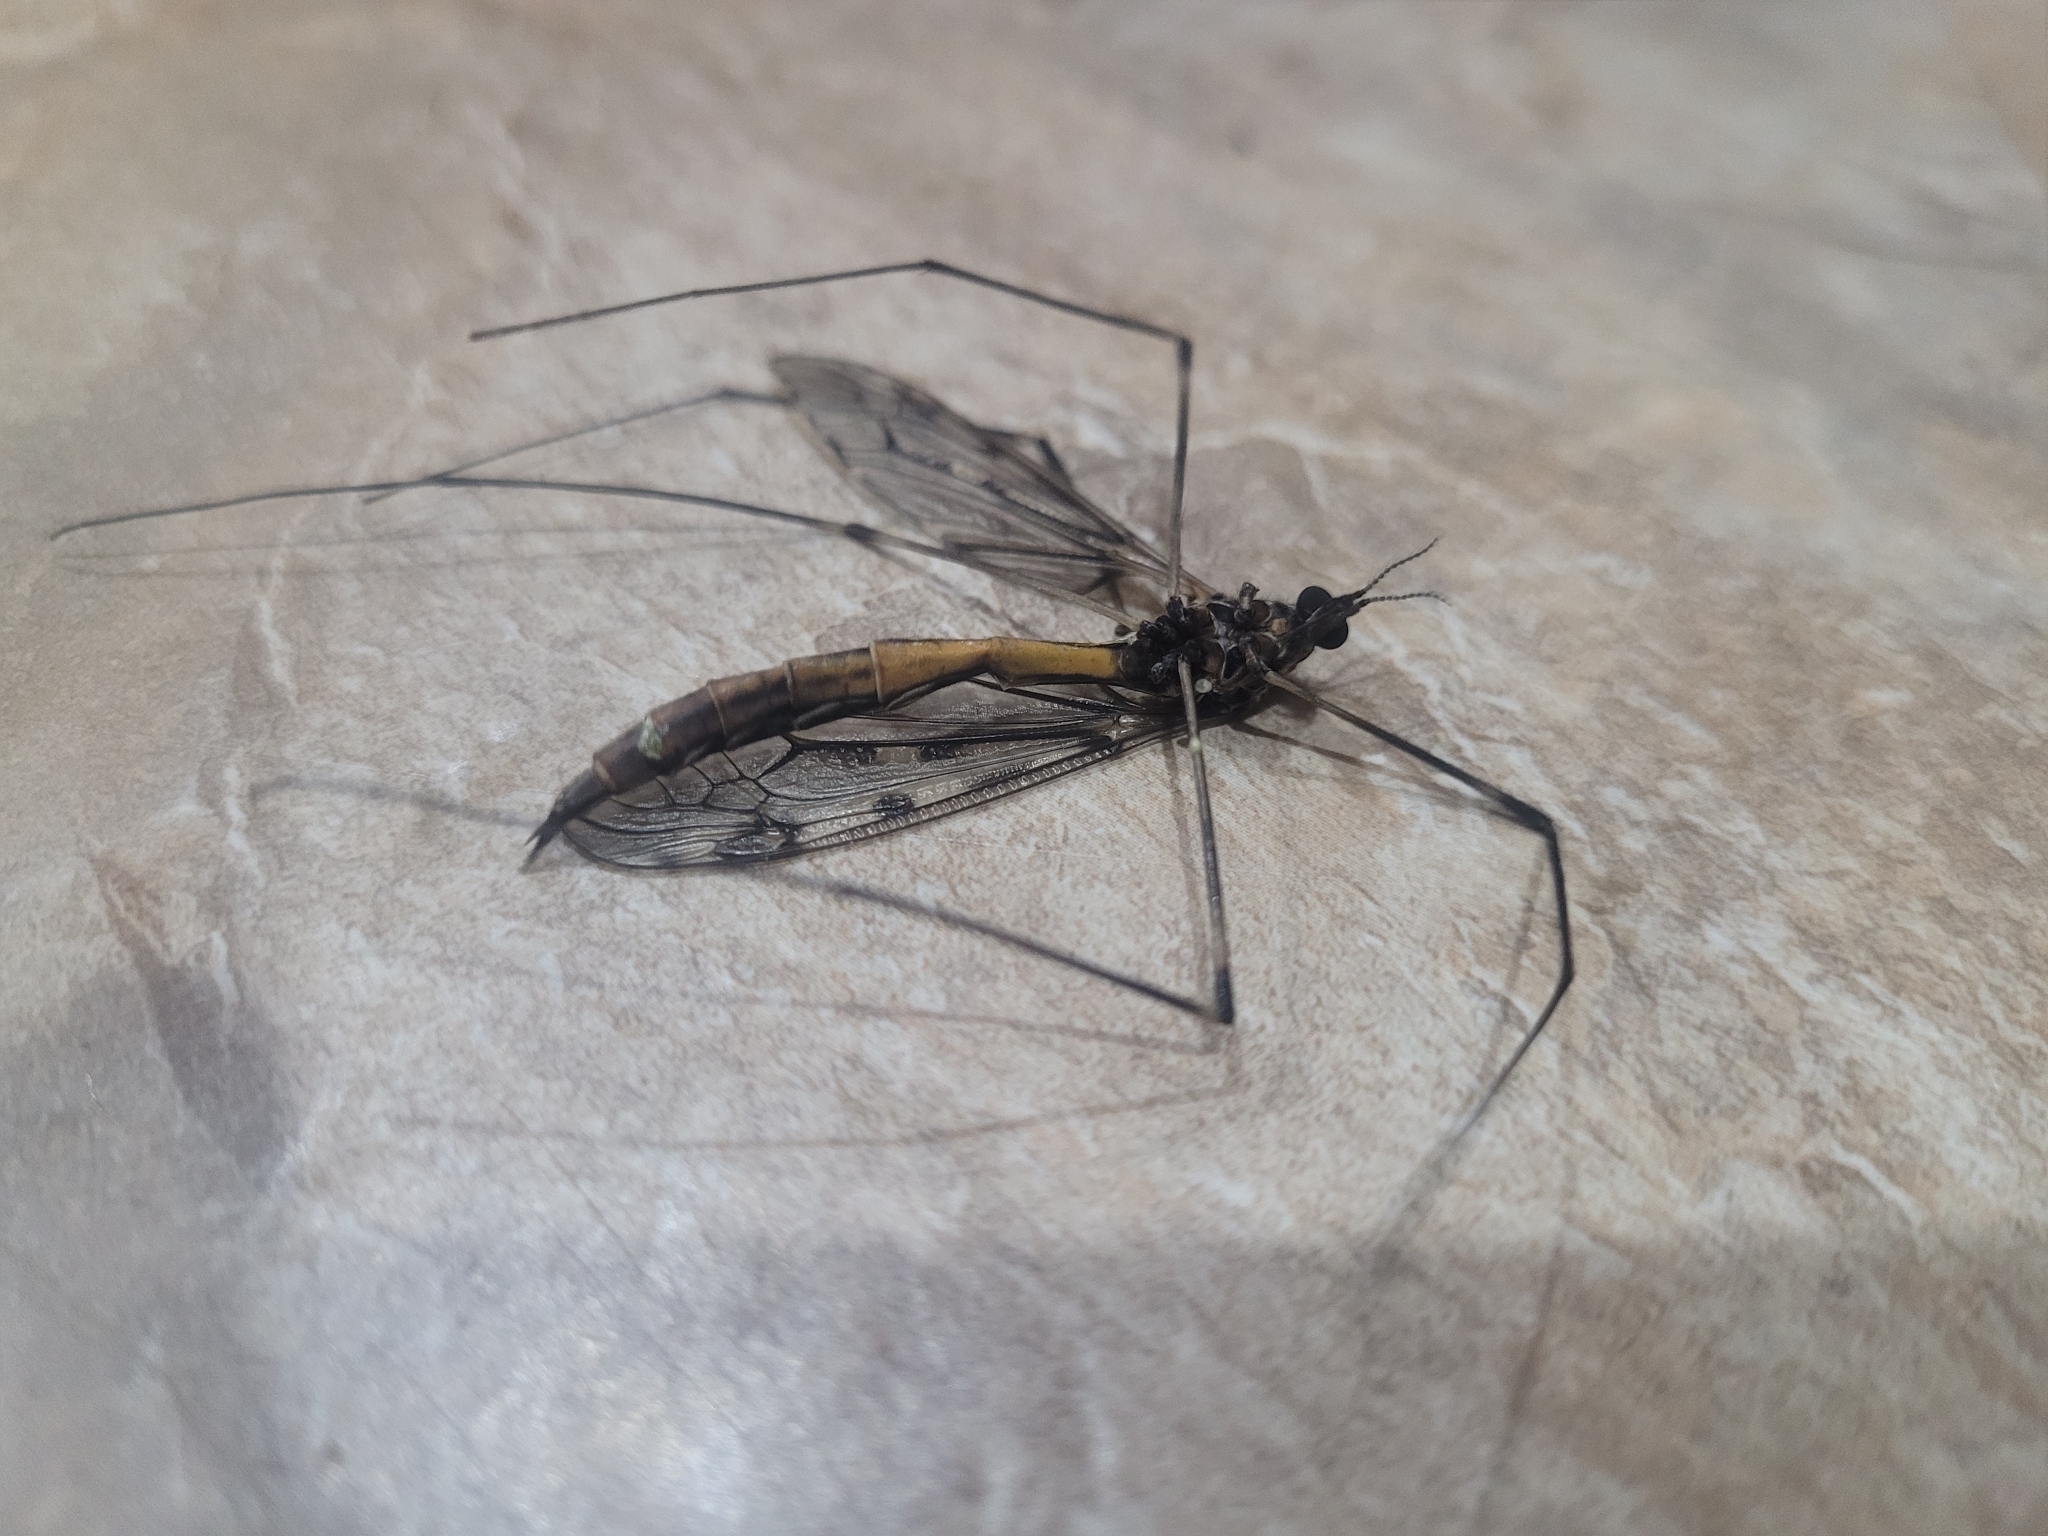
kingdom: Animalia
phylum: Arthropoda
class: Insecta
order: Diptera
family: Tipulidae
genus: Tipula
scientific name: Tipula abdominalis
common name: Giant crane fly
